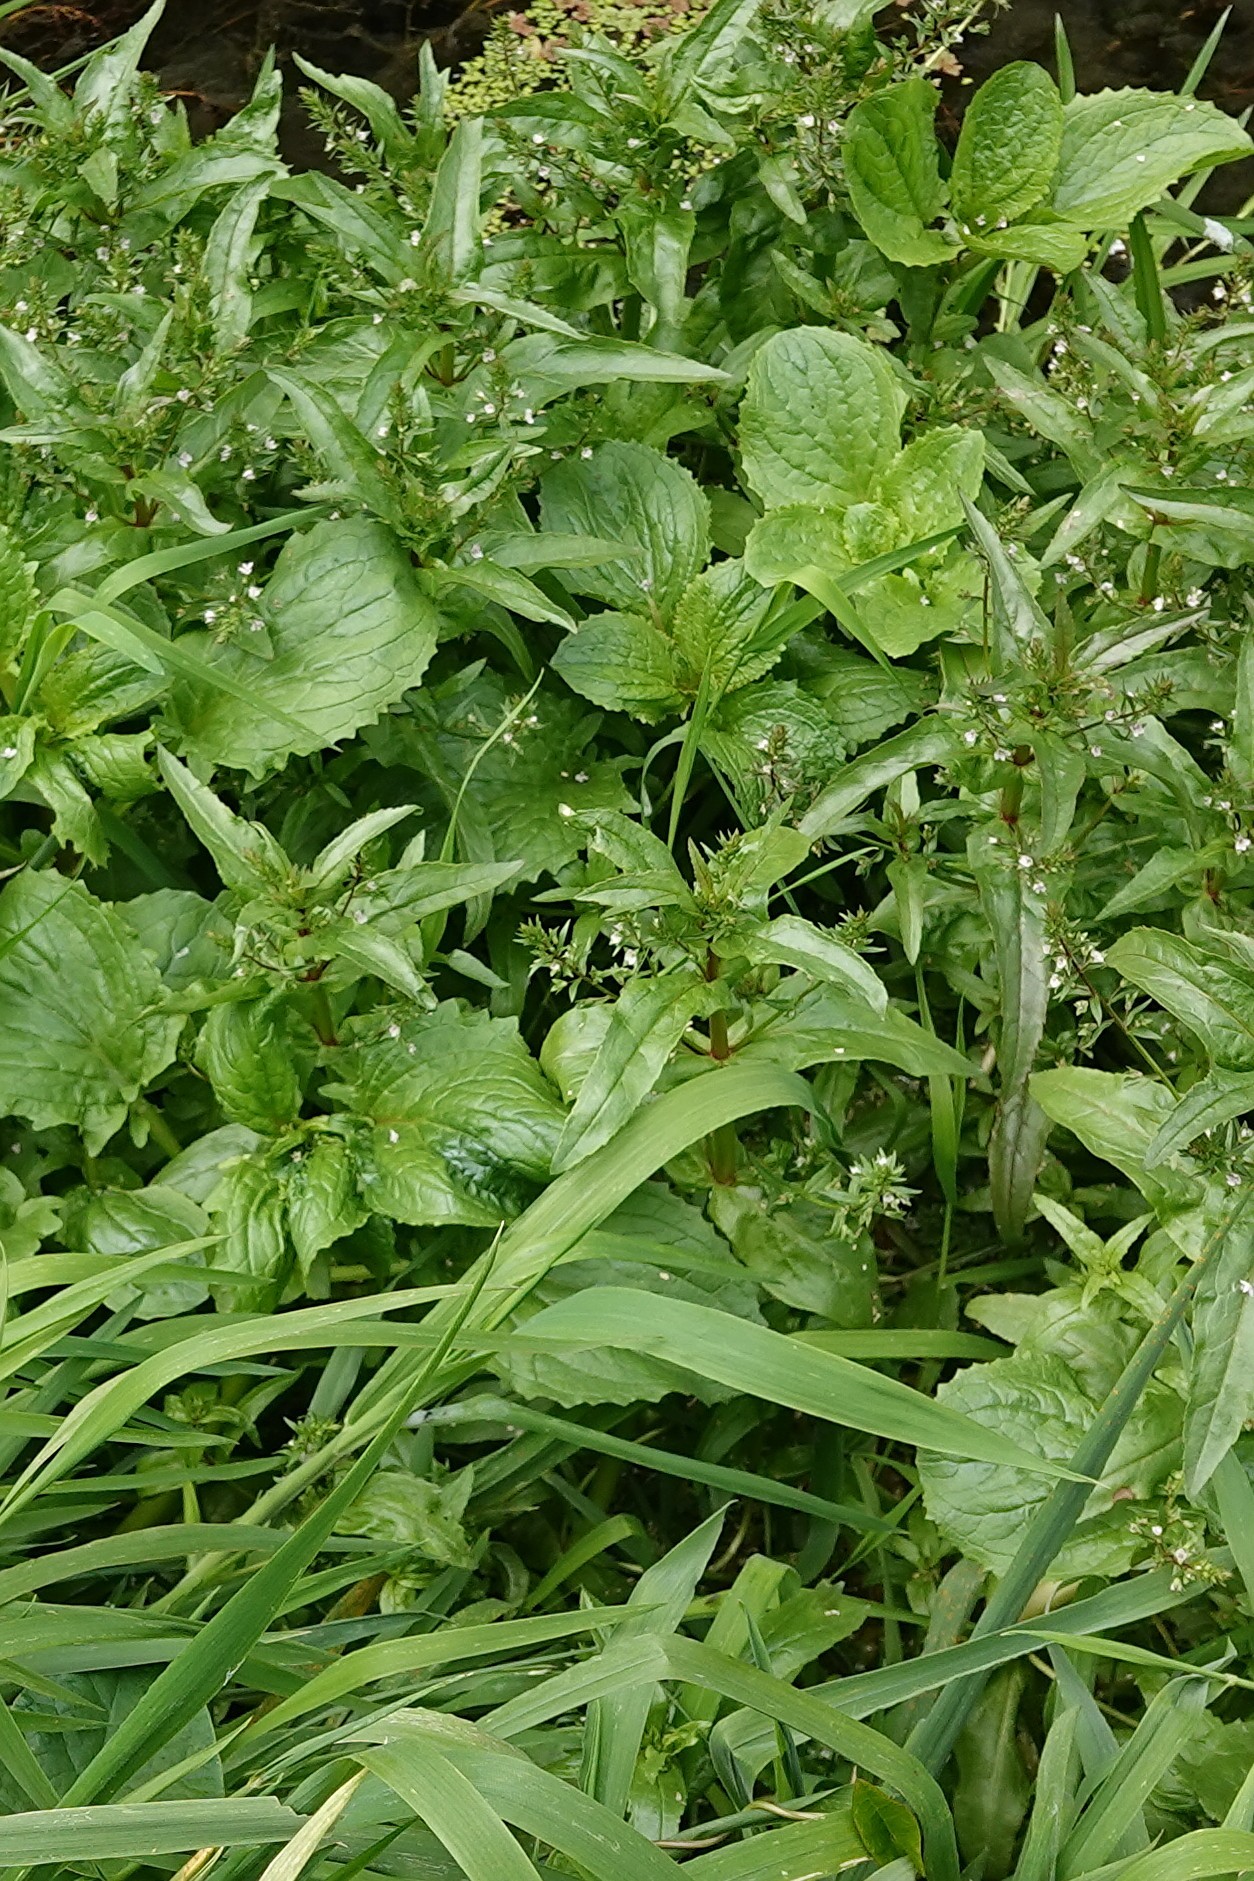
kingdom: Plantae
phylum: Tracheophyta
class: Magnoliopsida
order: Lamiales
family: Phrymaceae
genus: Erythranthe
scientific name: Erythranthe guttata
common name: Monkeyflower
